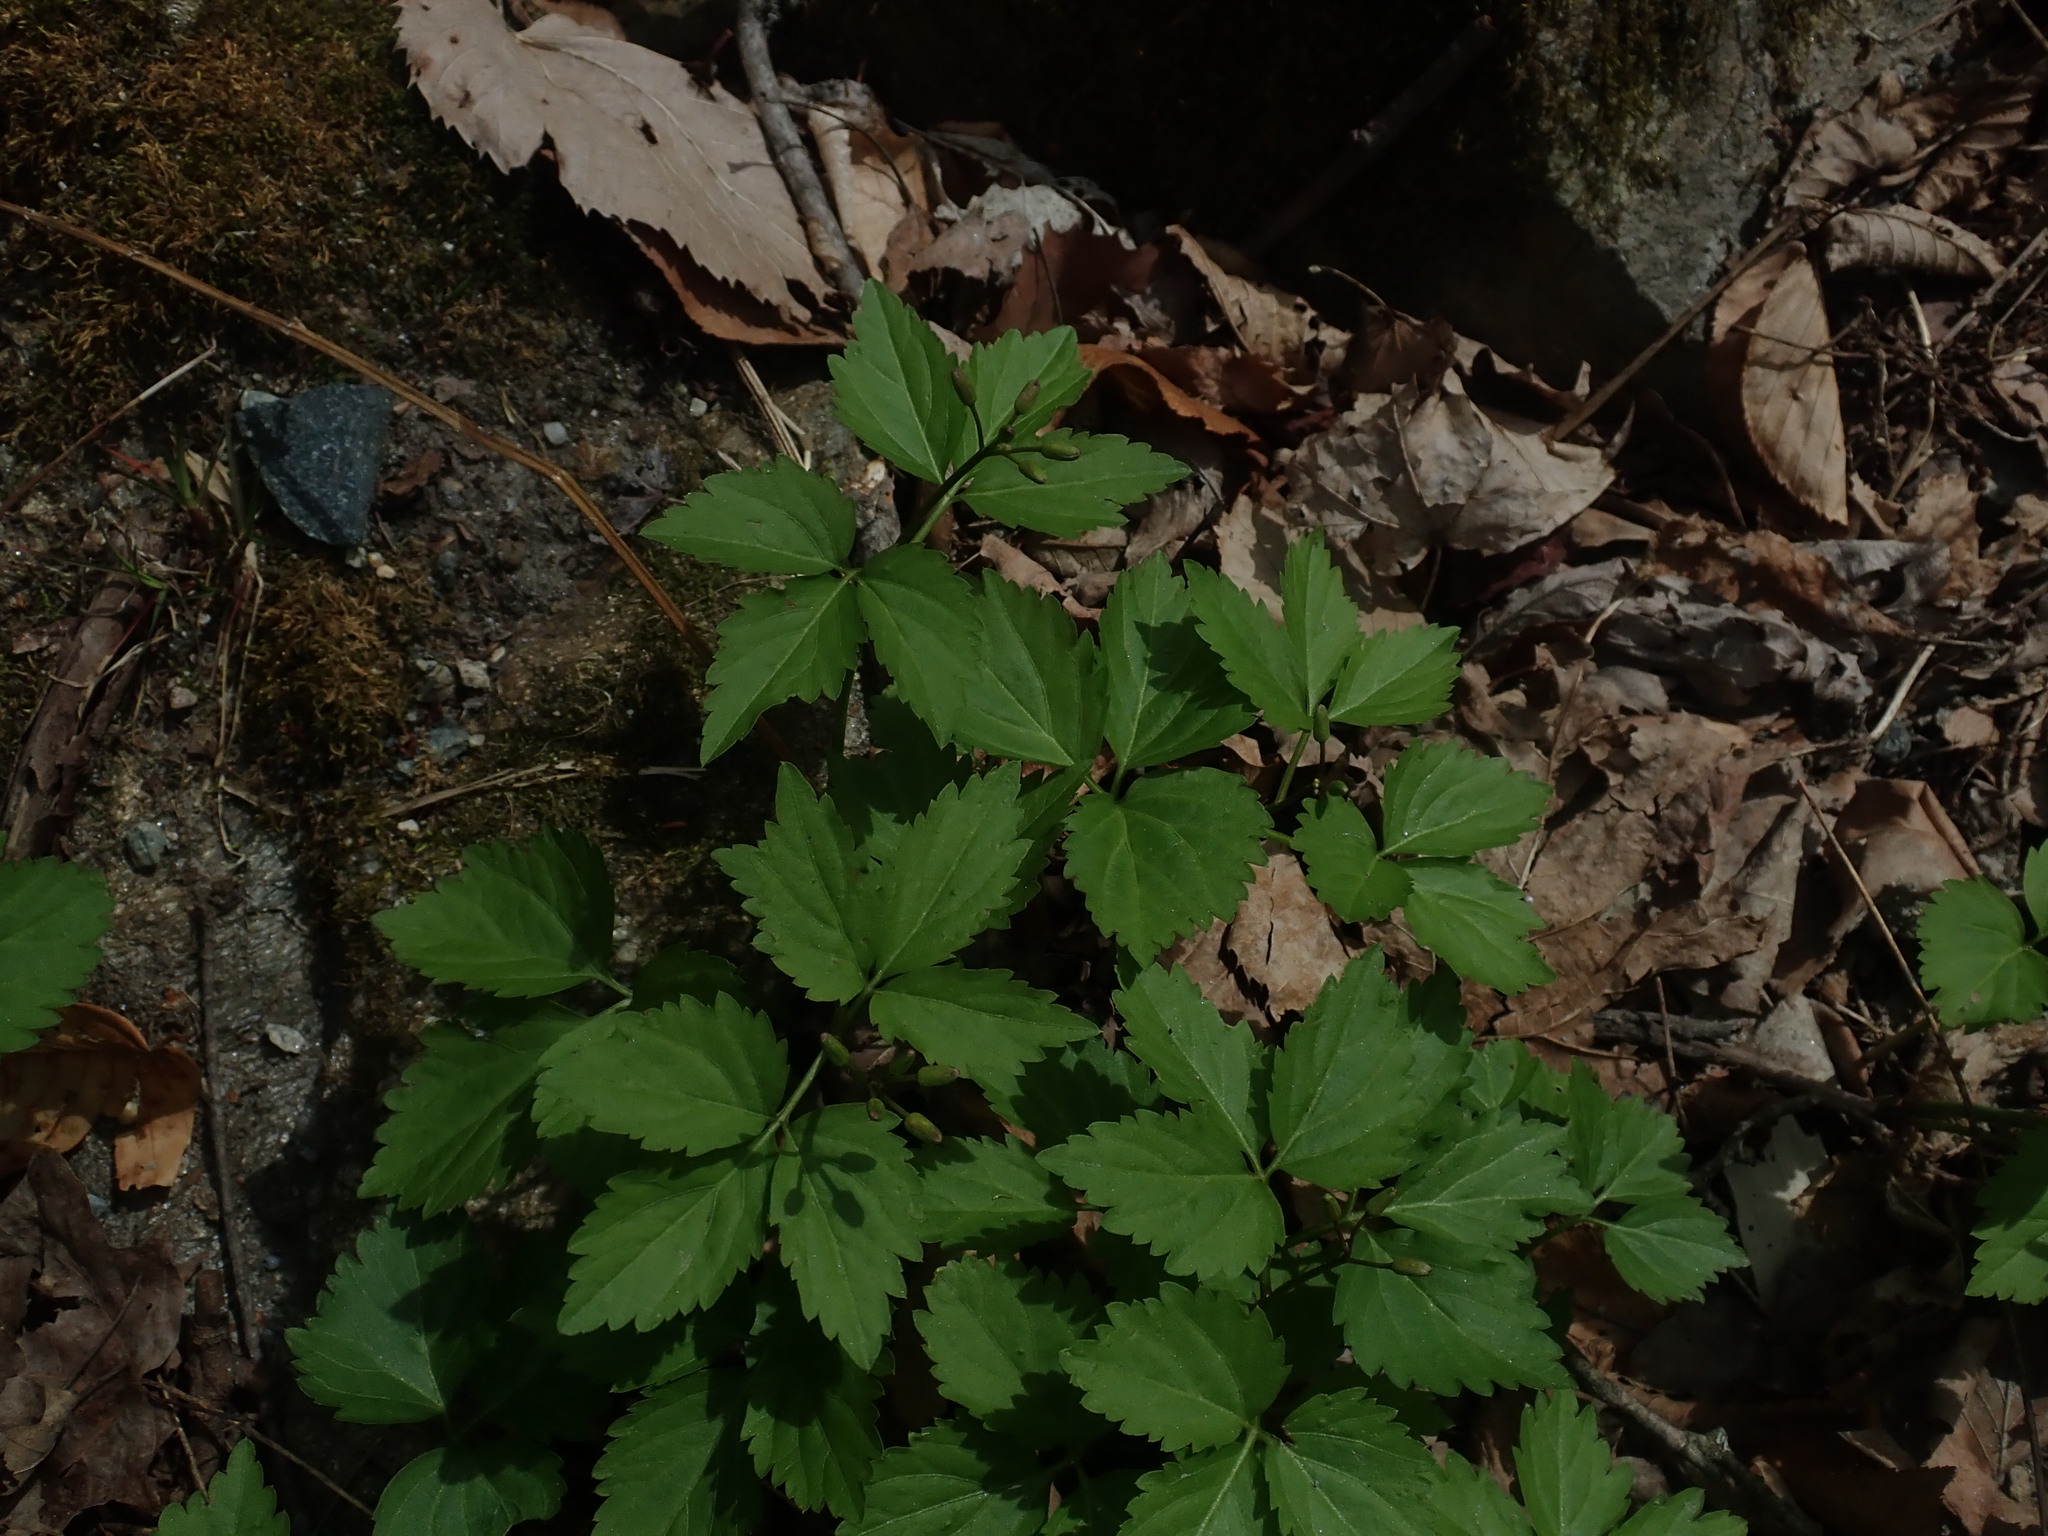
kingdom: Plantae
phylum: Tracheophyta
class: Magnoliopsida
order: Brassicales
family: Brassicaceae
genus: Cardamine
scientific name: Cardamine diphylla
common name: Broad-leaved toothwort
